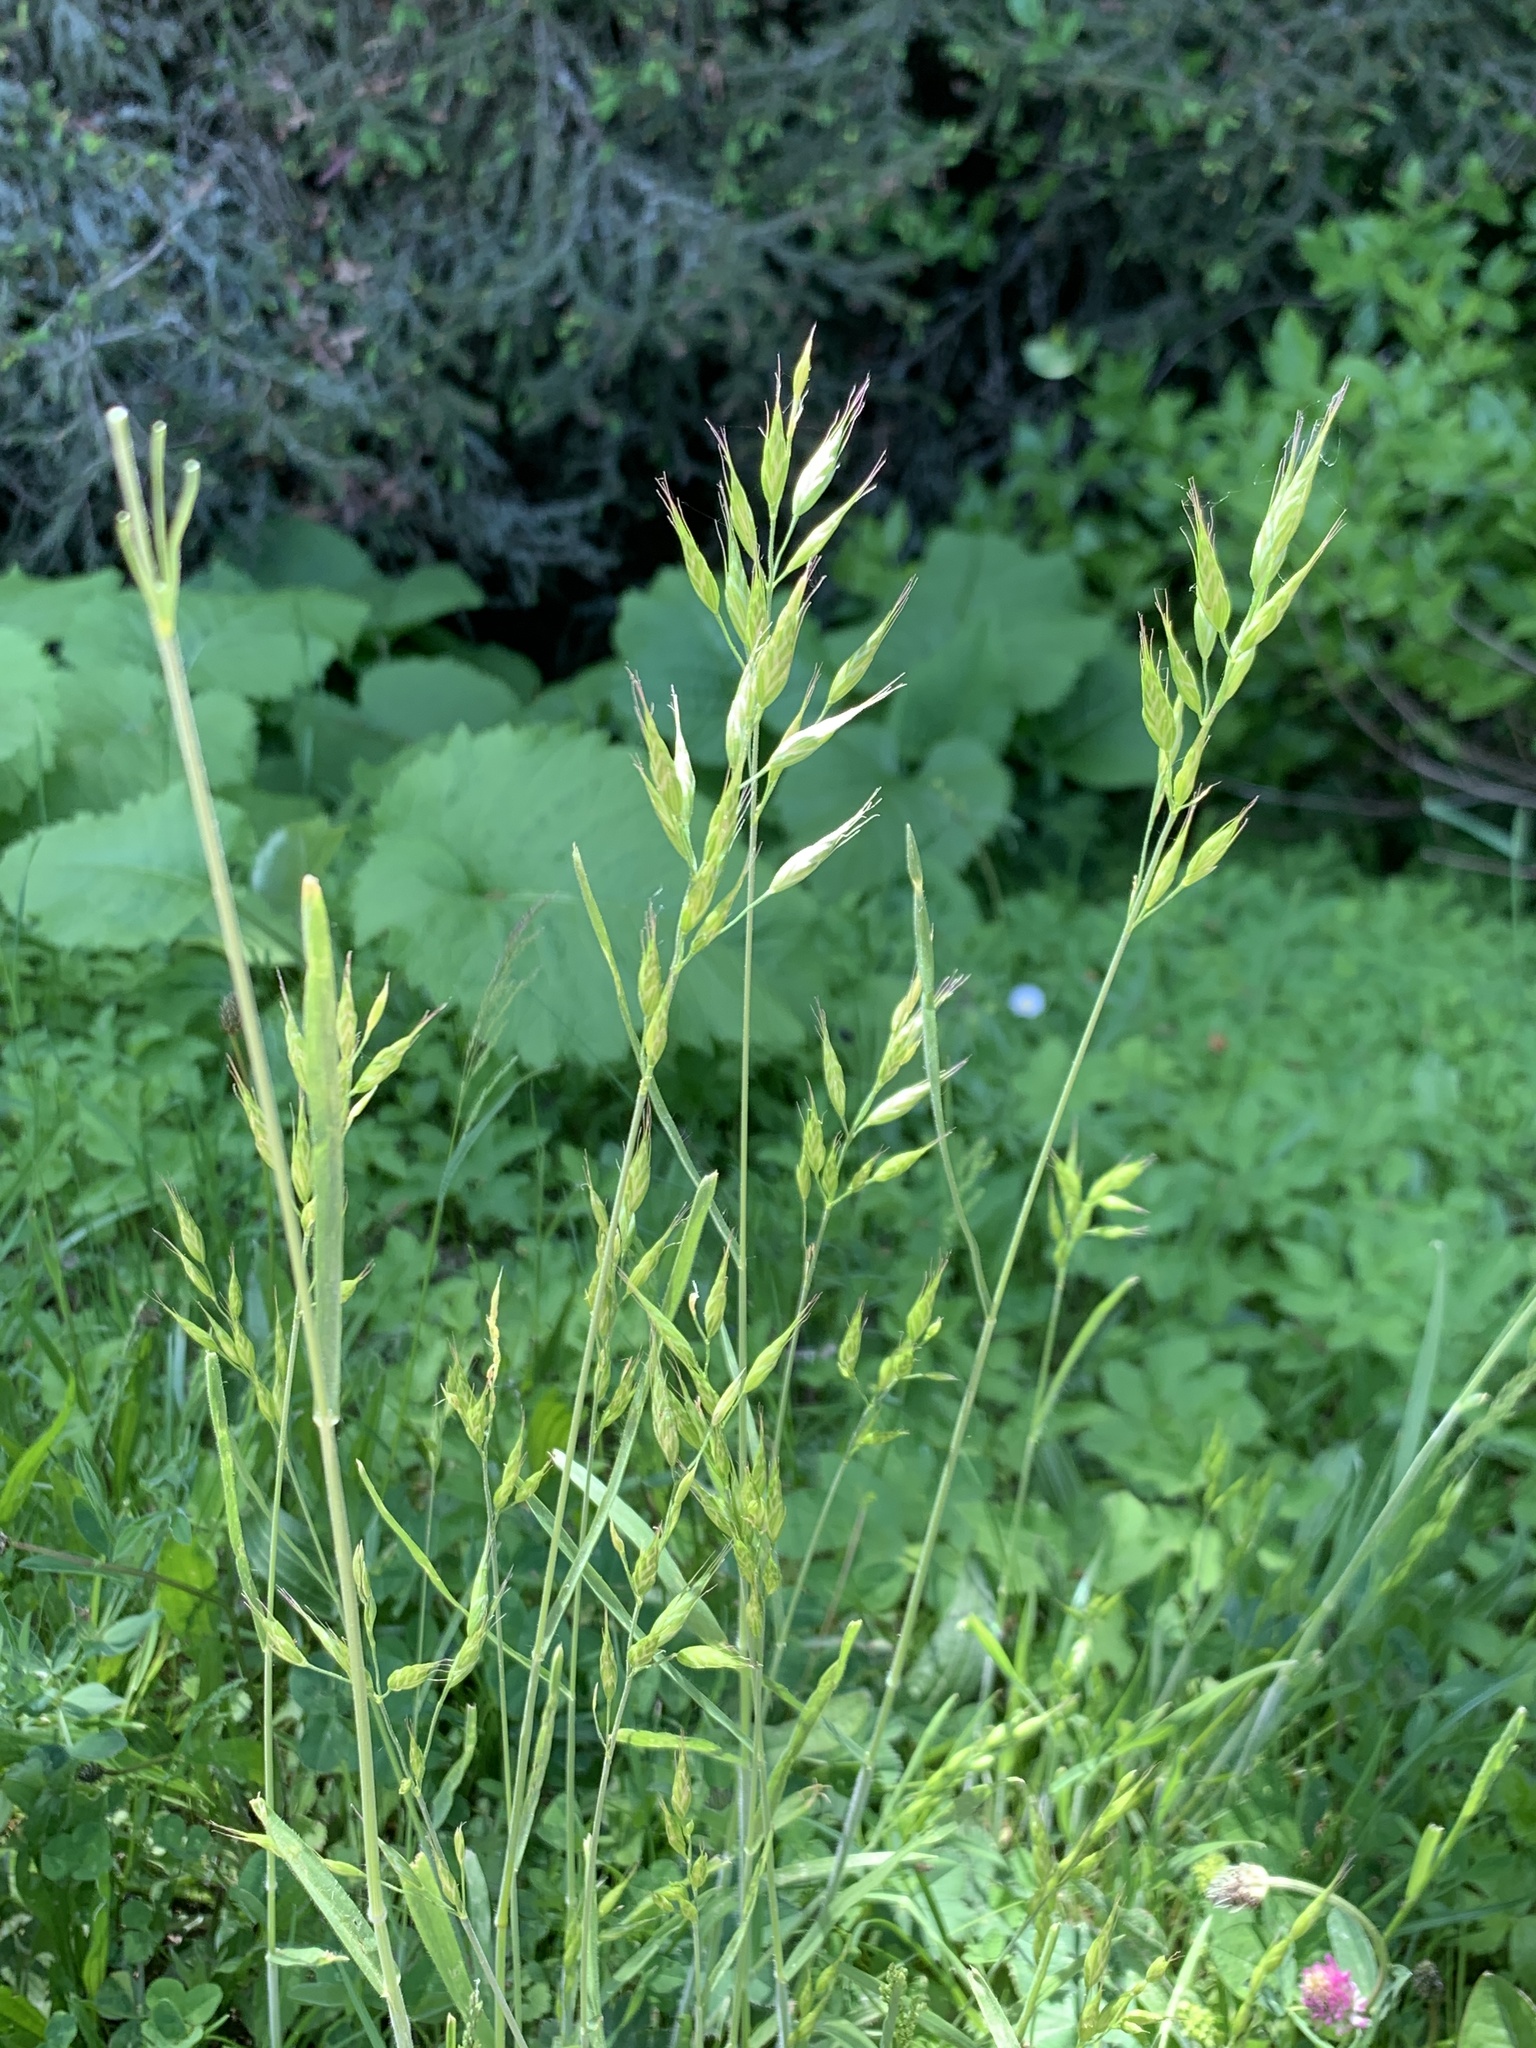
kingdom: Plantae
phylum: Tracheophyta
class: Liliopsida
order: Poales
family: Poaceae
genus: Bromus
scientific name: Bromus hordeaceus
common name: Soft brome
